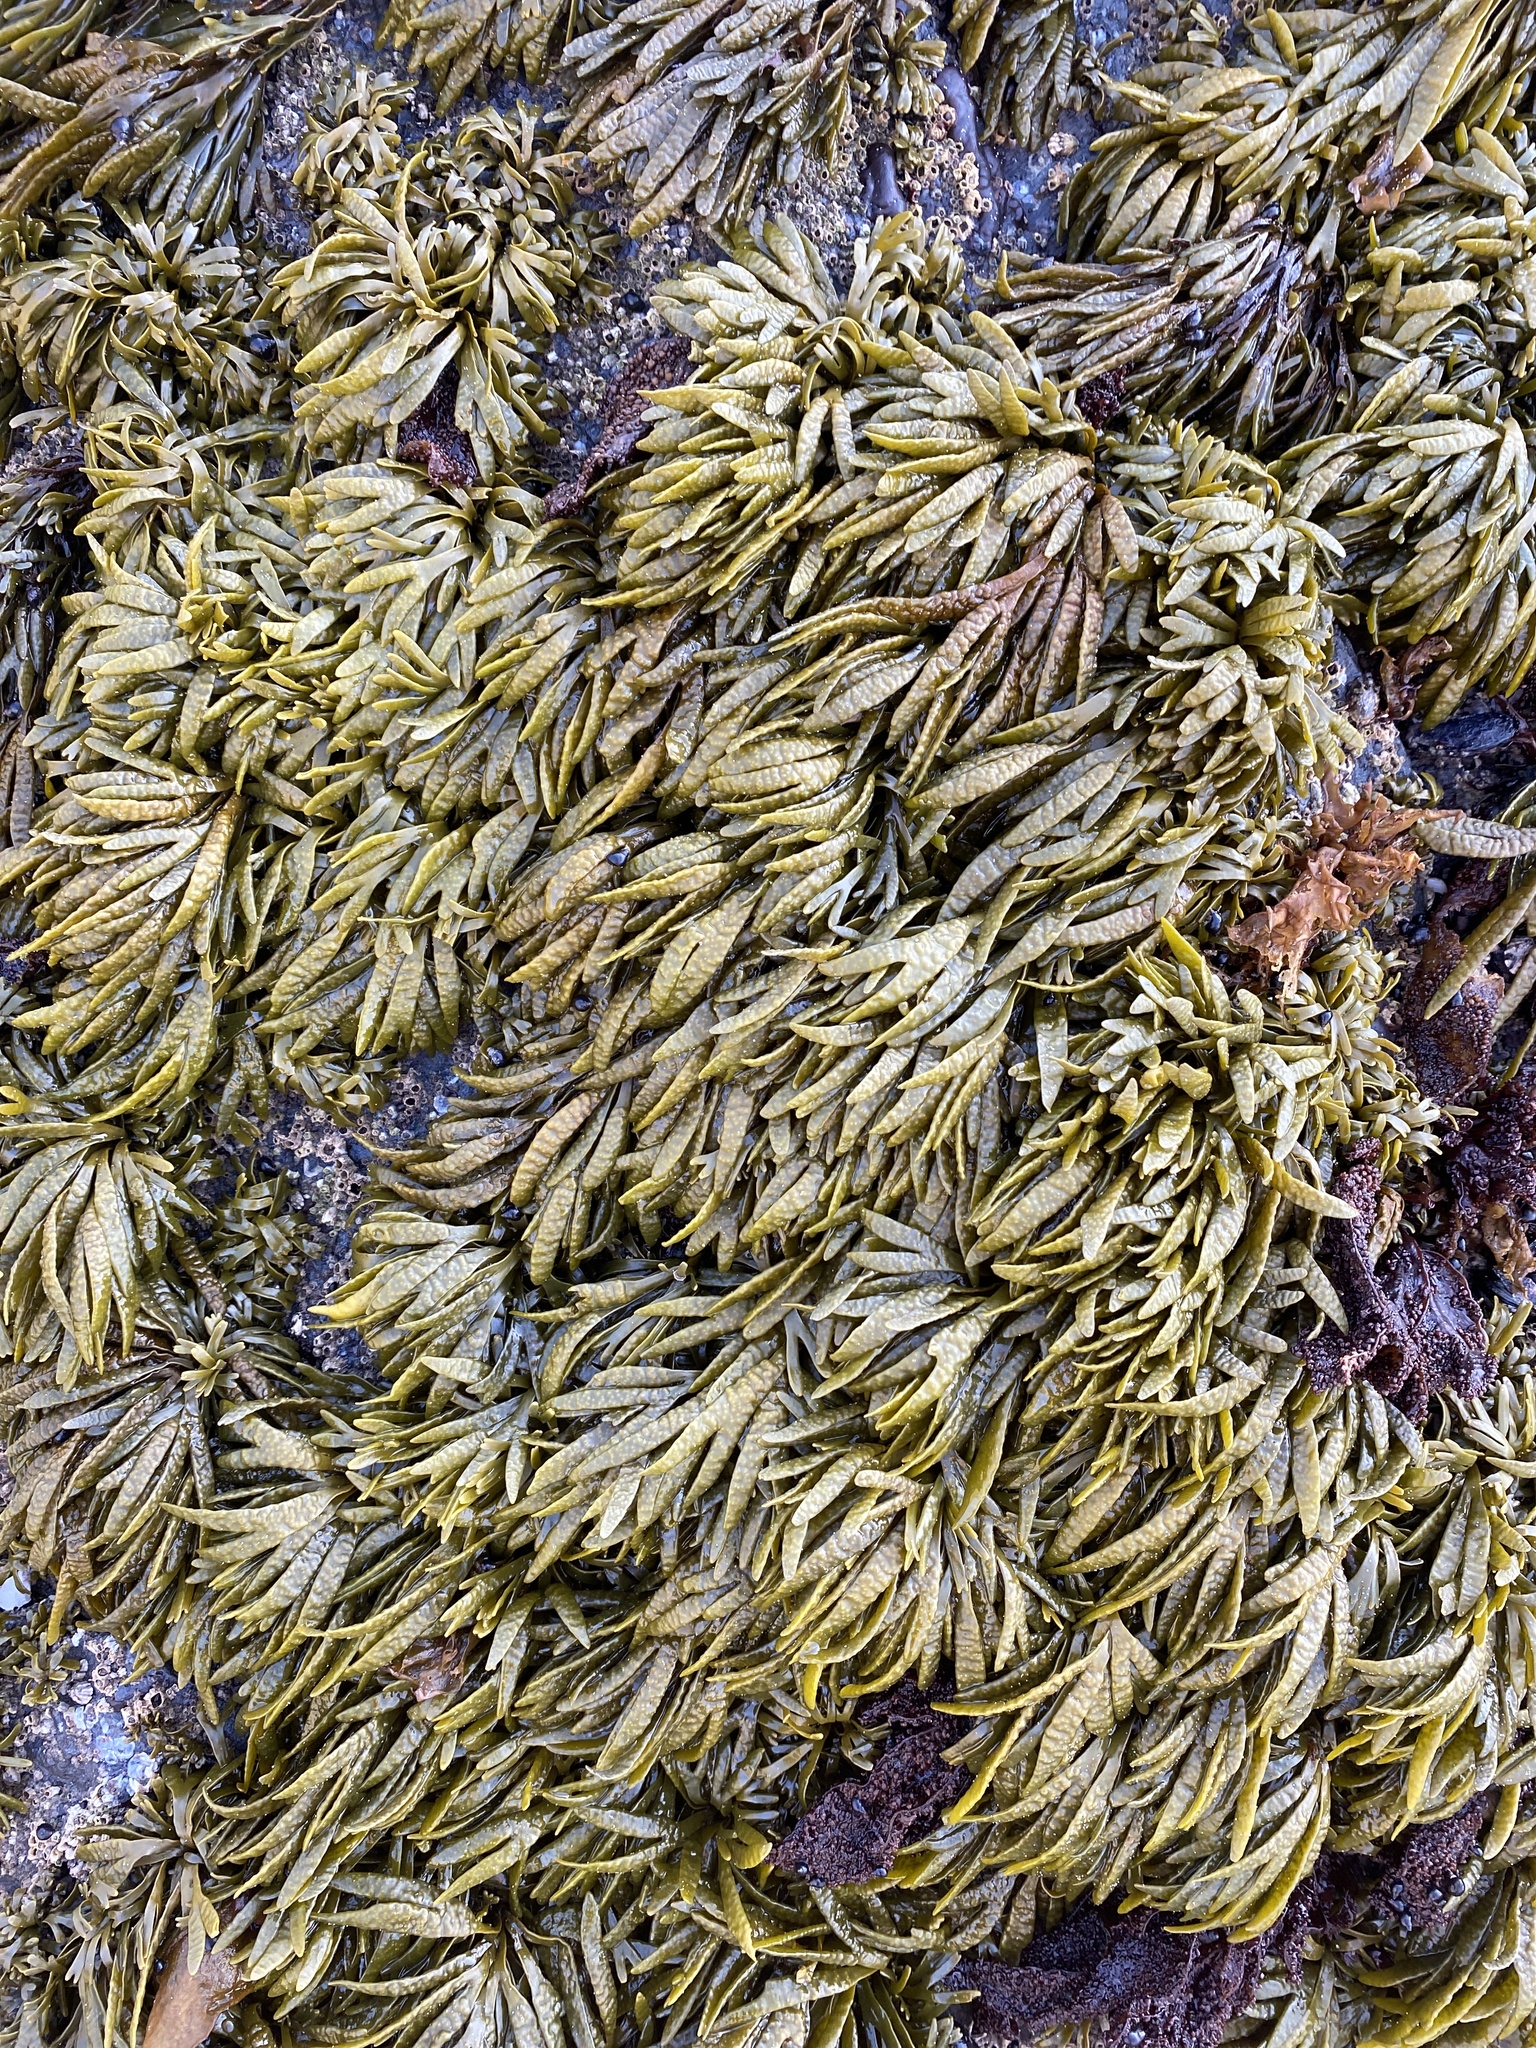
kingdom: Chromista
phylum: Ochrophyta
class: Phaeophyceae
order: Fucales
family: Fucaceae
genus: Pelvetiopsis
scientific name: Pelvetiopsis limitata
